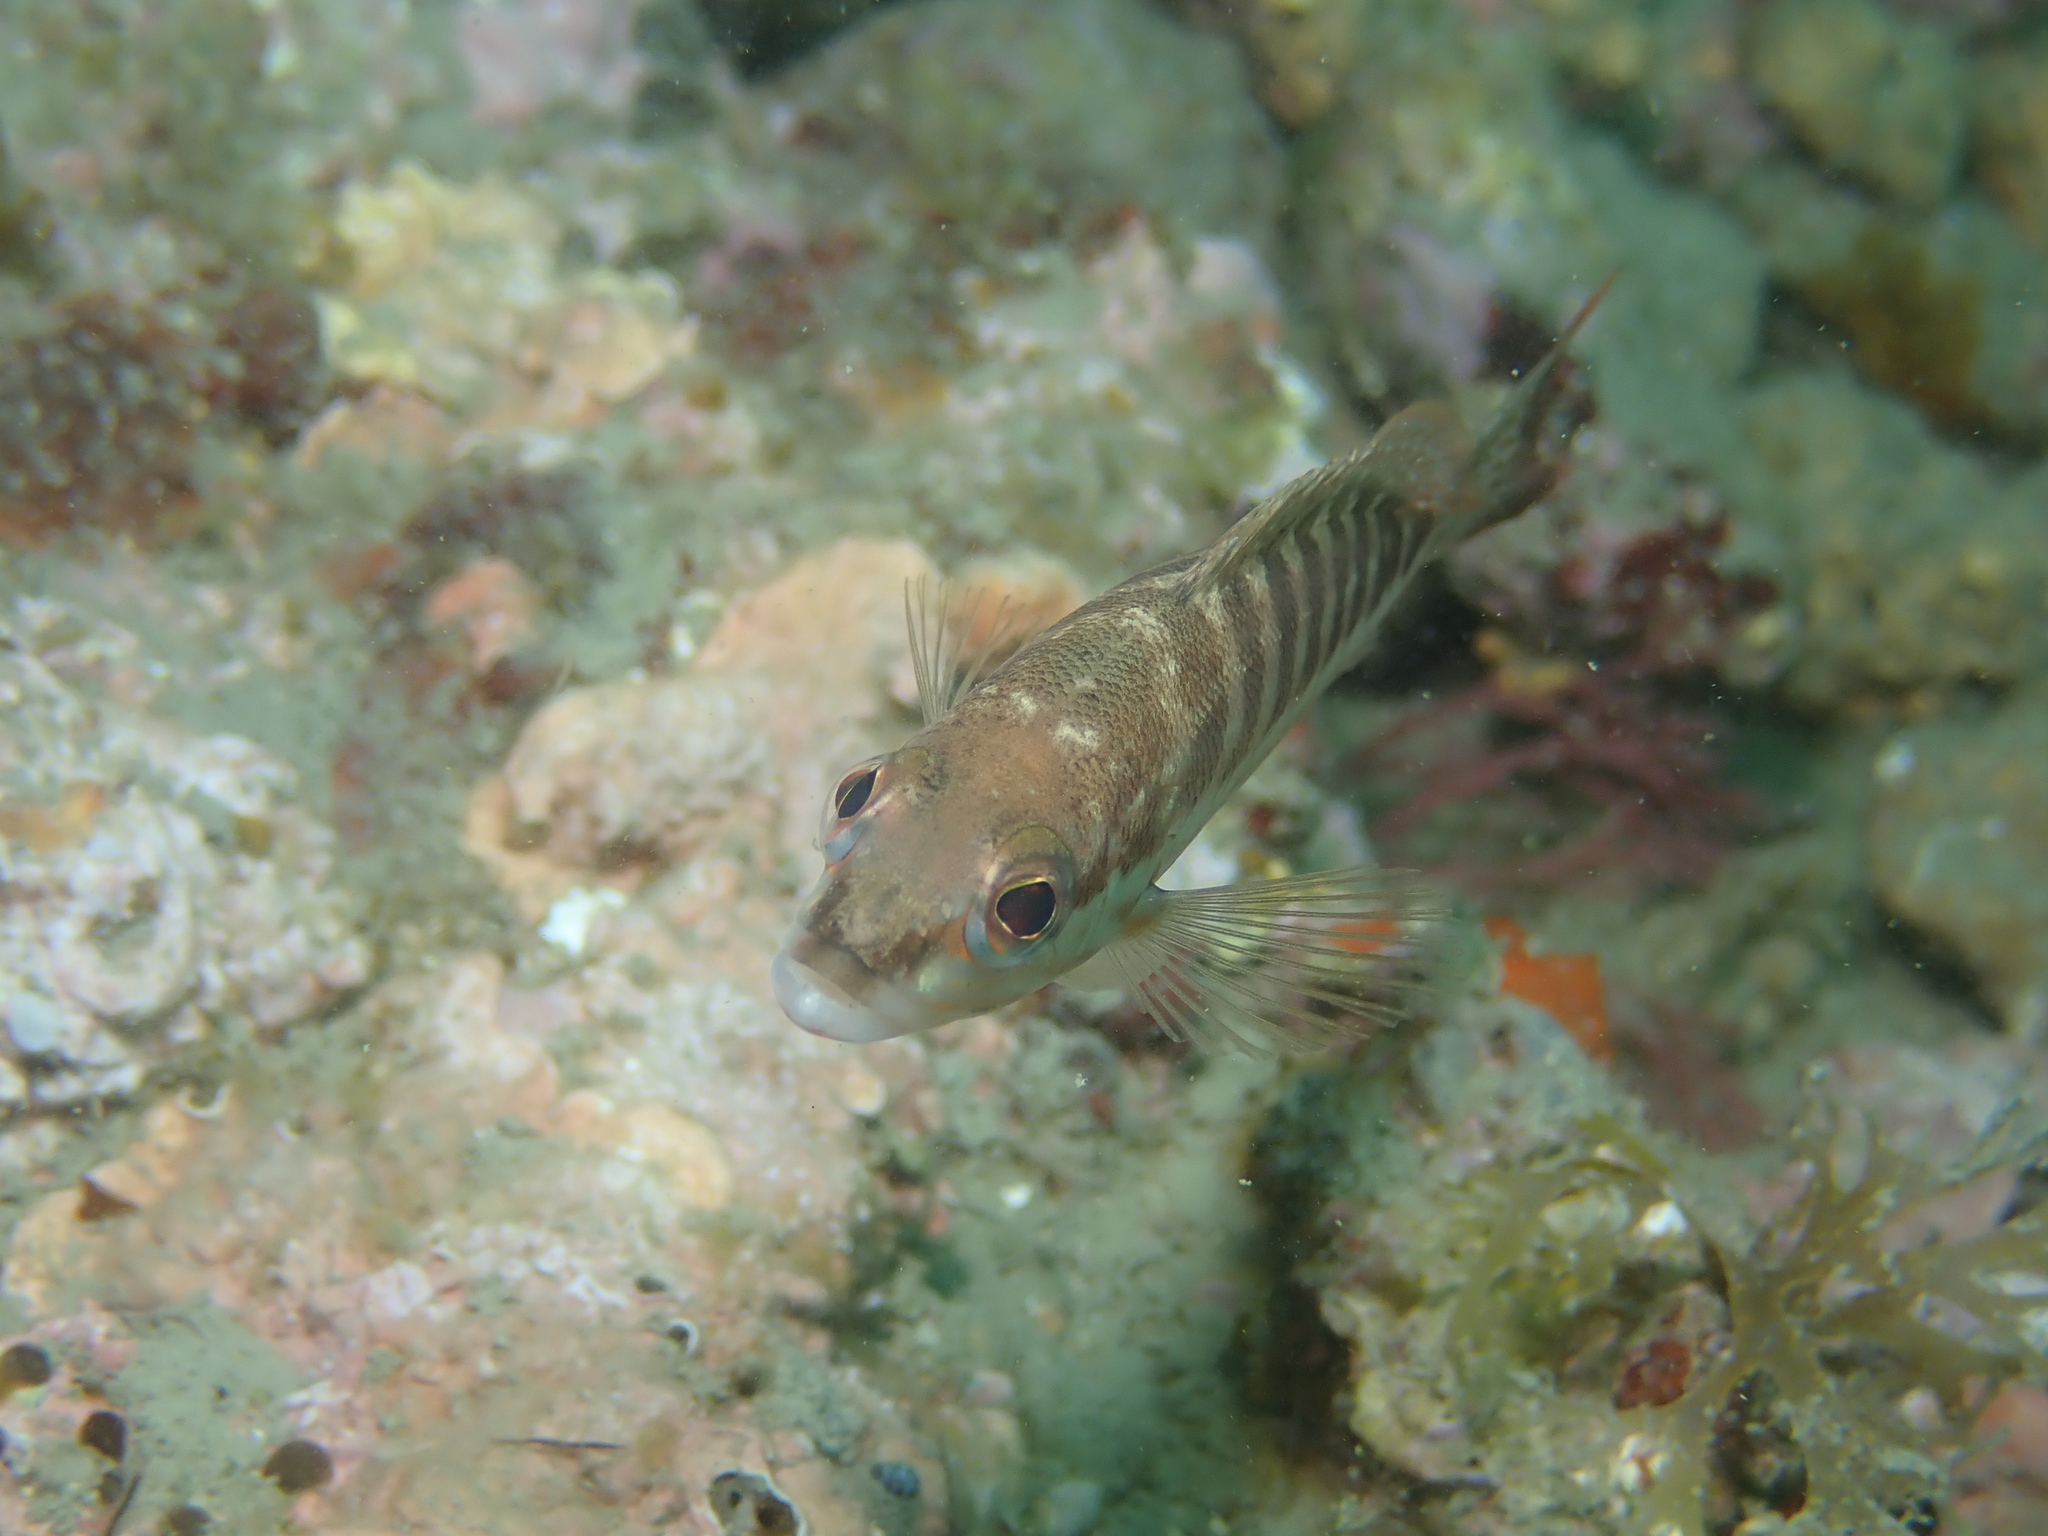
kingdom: Animalia
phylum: Chordata
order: Perciformes
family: Serranidae
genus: Serranus
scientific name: Serranus cabrilla
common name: Comber
